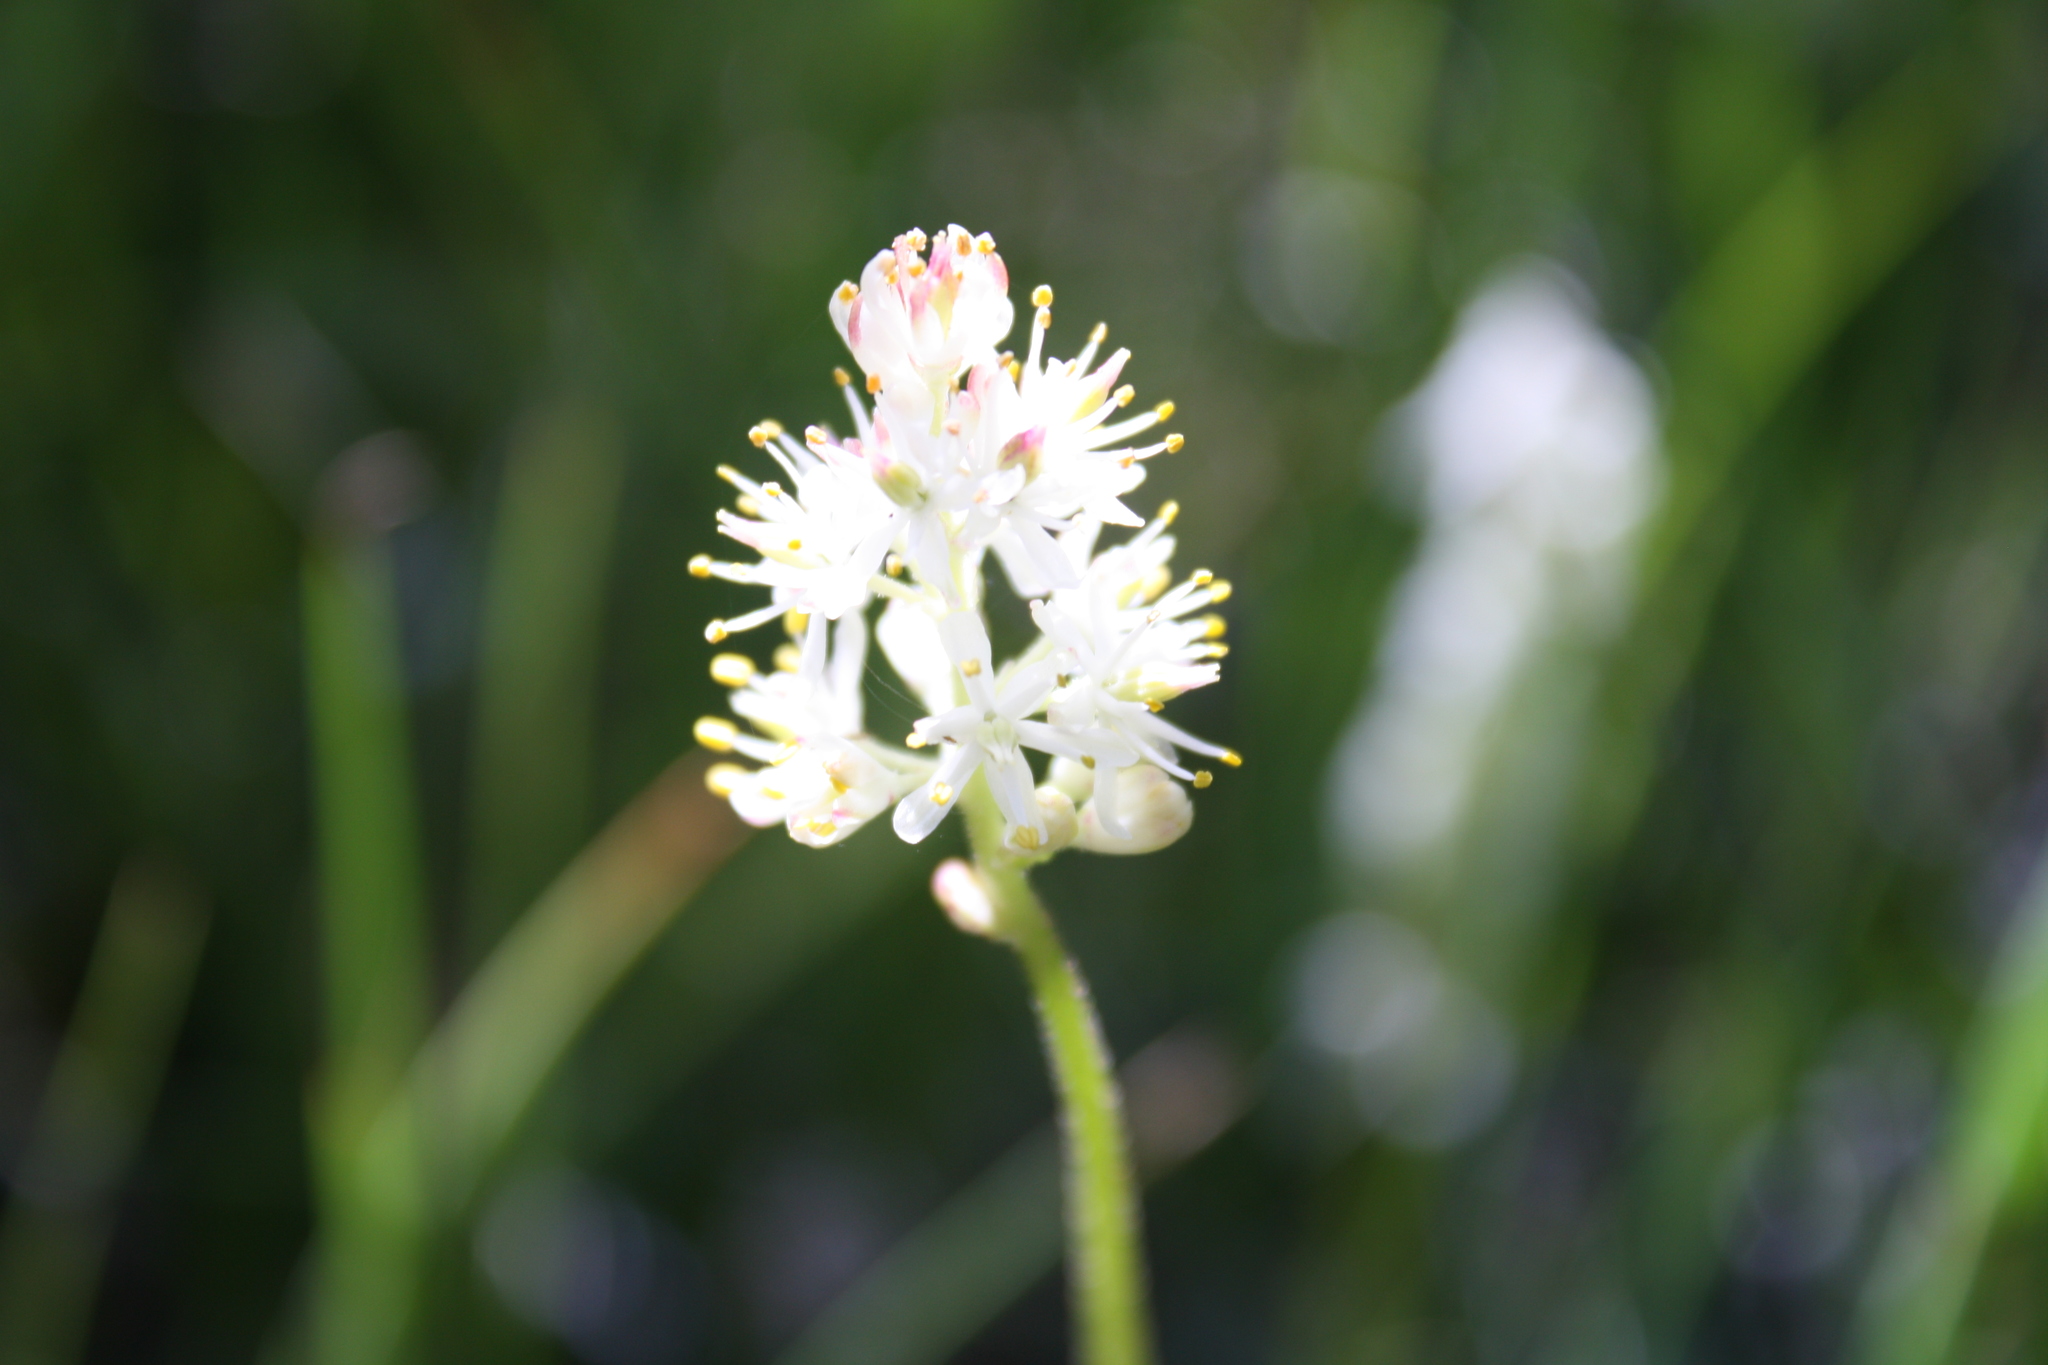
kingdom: Plantae
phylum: Tracheophyta
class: Liliopsida
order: Alismatales
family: Tofieldiaceae
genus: Triantha
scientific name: Triantha occidentalis
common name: Western false asphodel
